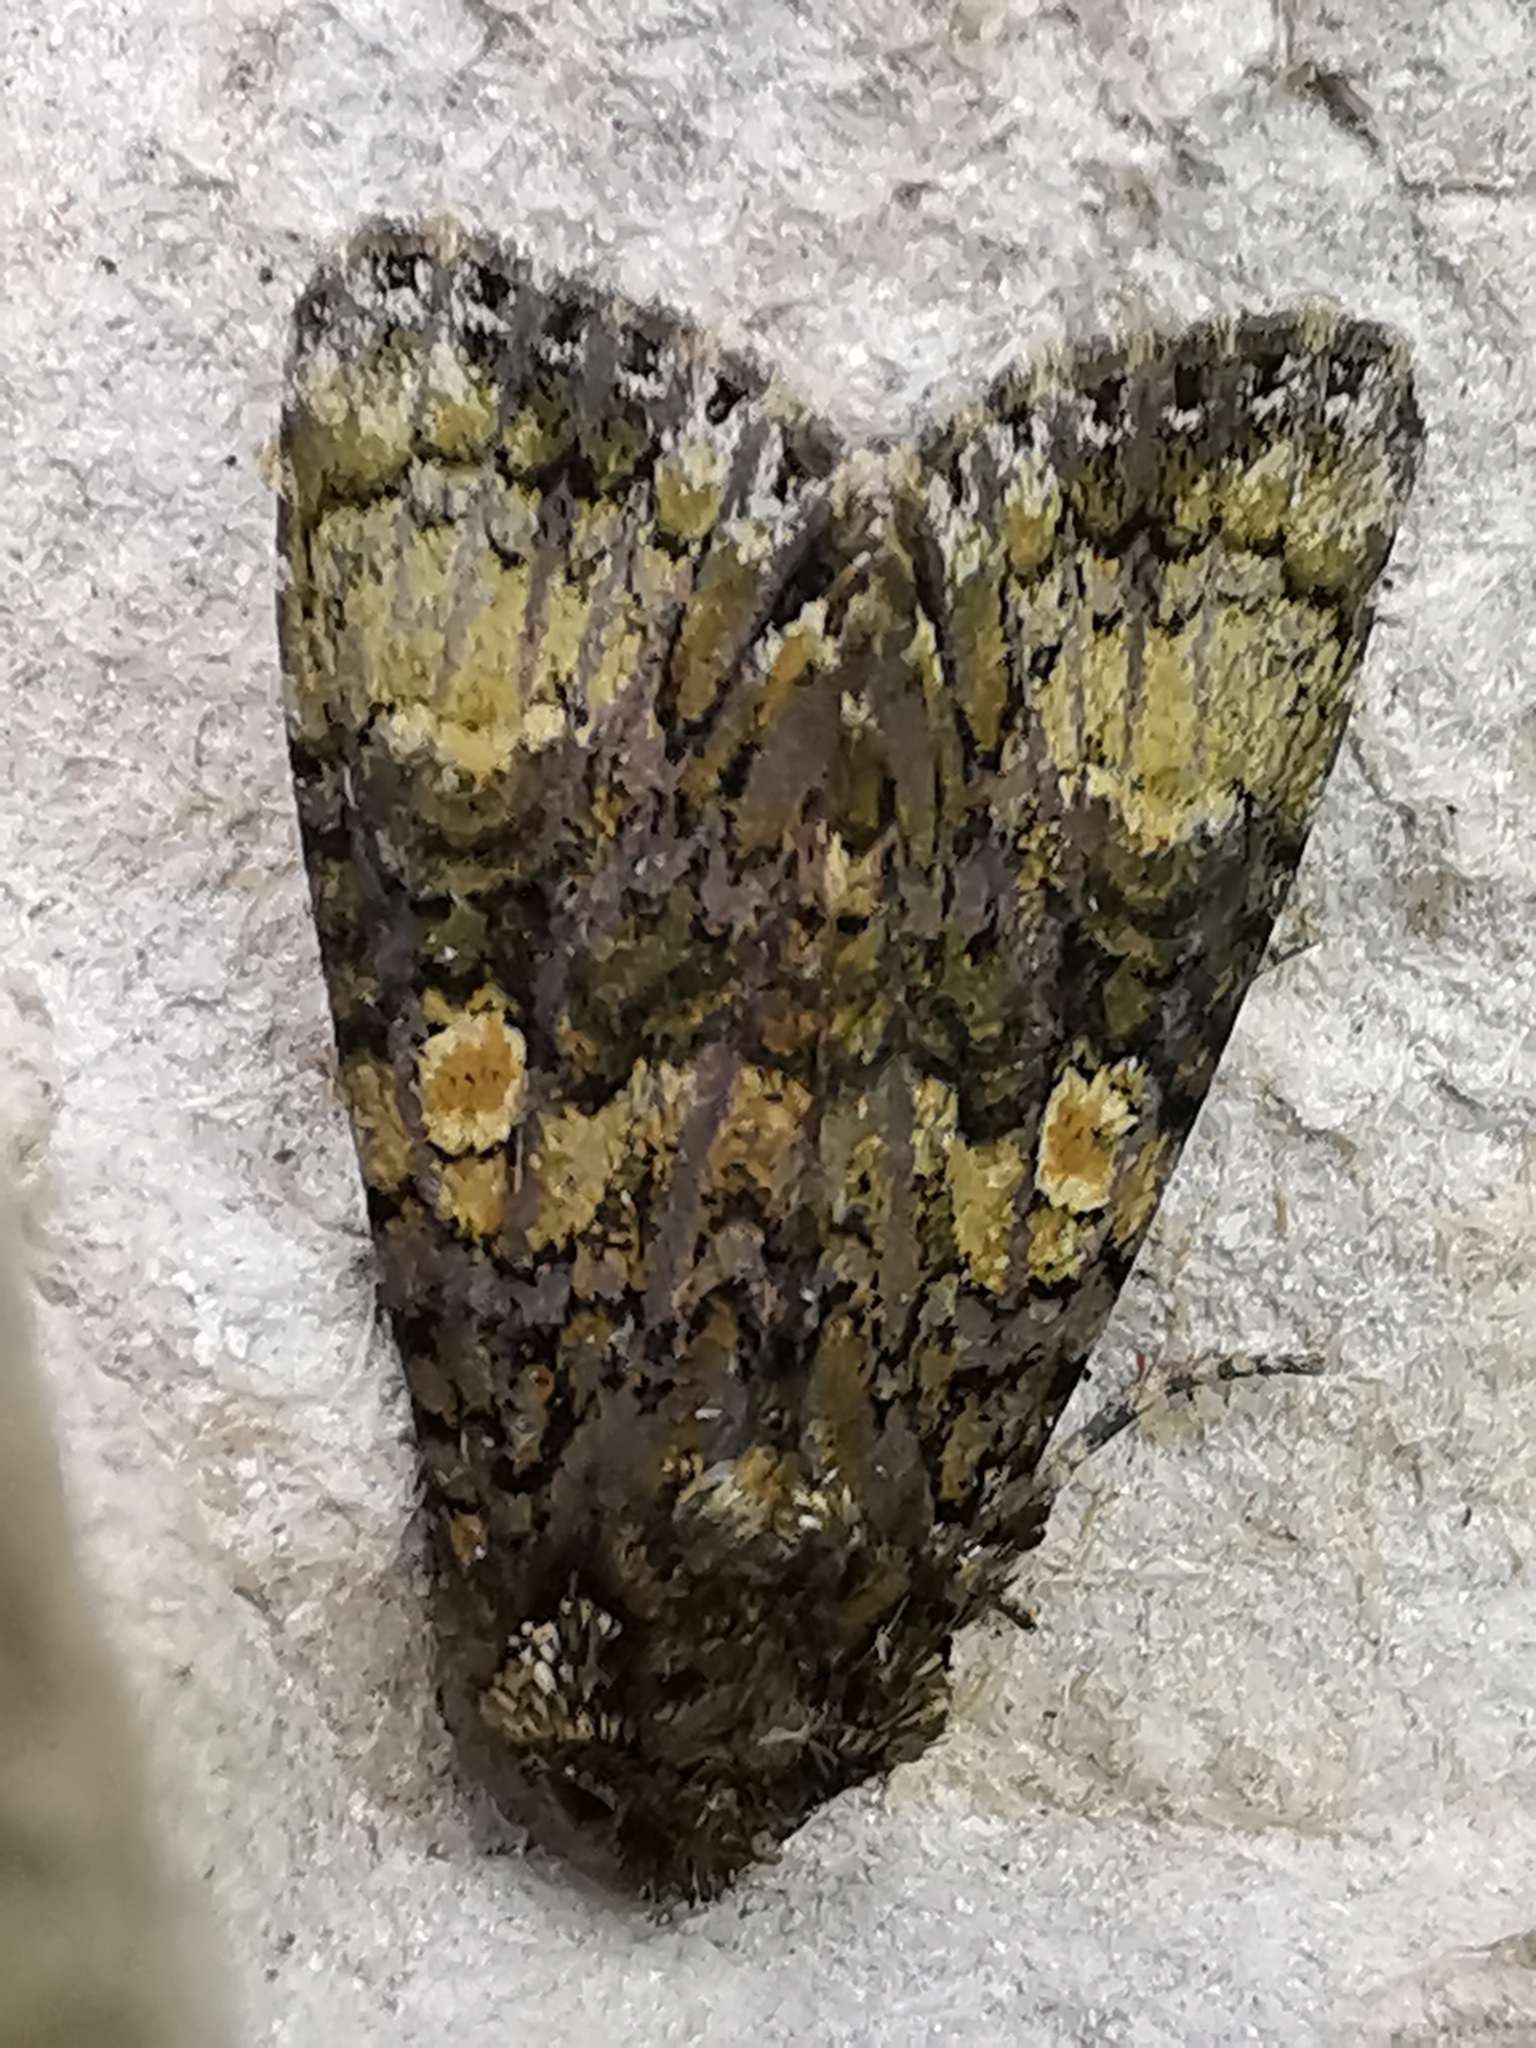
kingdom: Animalia
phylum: Arthropoda
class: Insecta
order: Lepidoptera
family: Noctuidae
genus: Craniophora
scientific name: Craniophora ligustri
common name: Coronet
